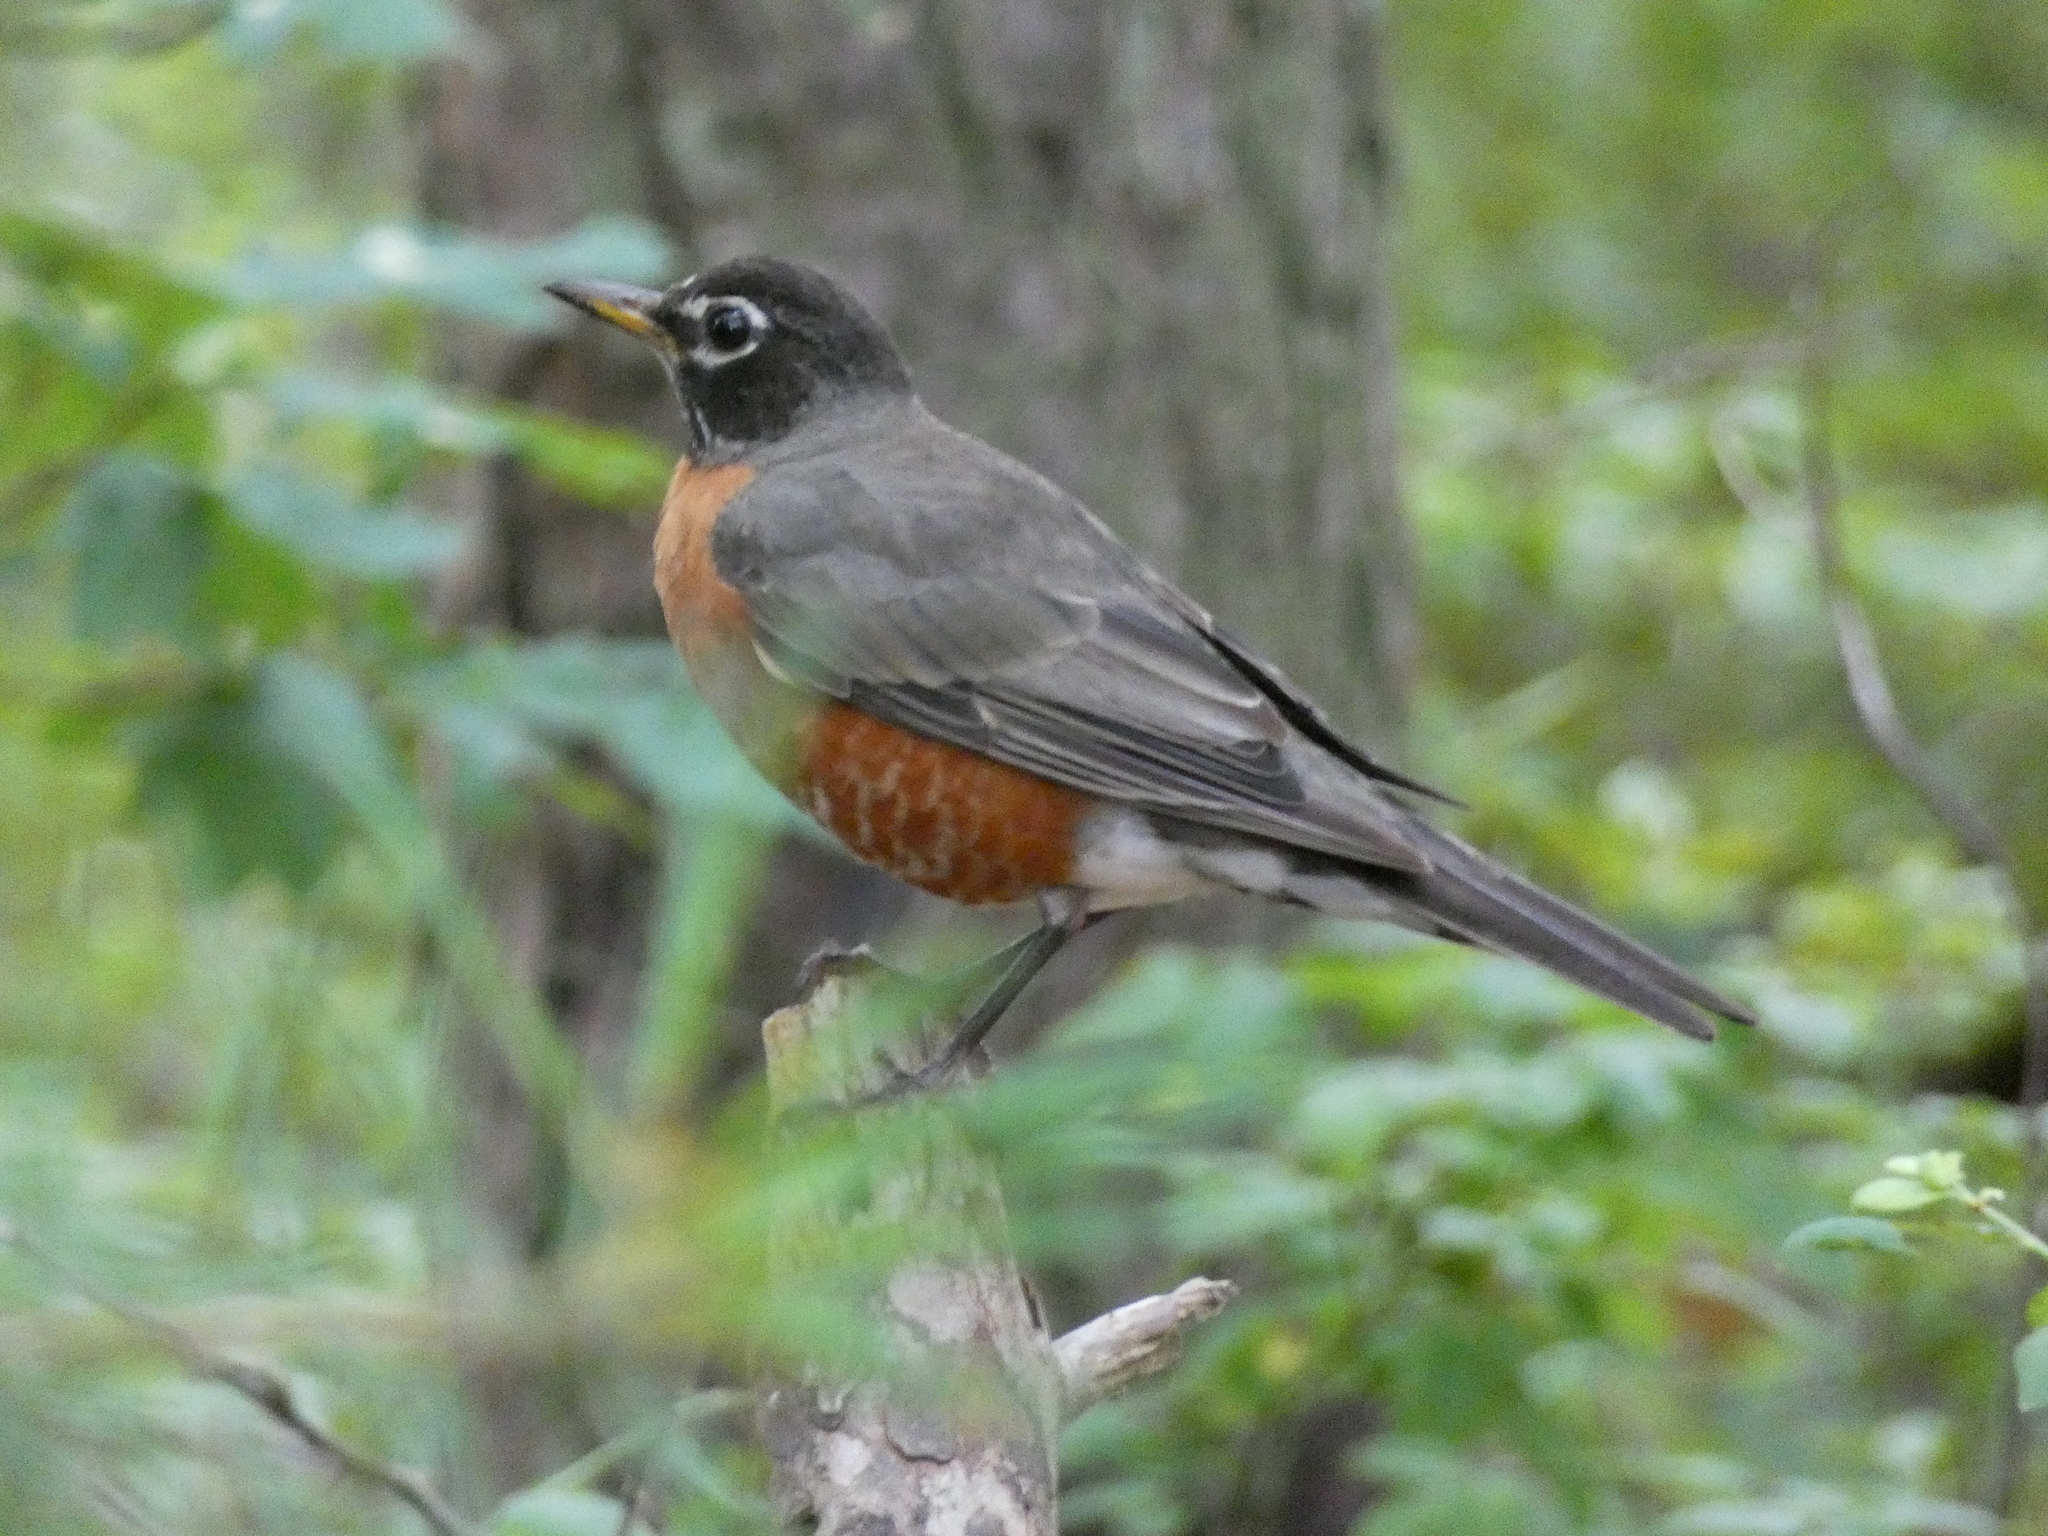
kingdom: Animalia
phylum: Chordata
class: Aves
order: Passeriformes
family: Turdidae
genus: Turdus
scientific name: Turdus migratorius
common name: American robin
